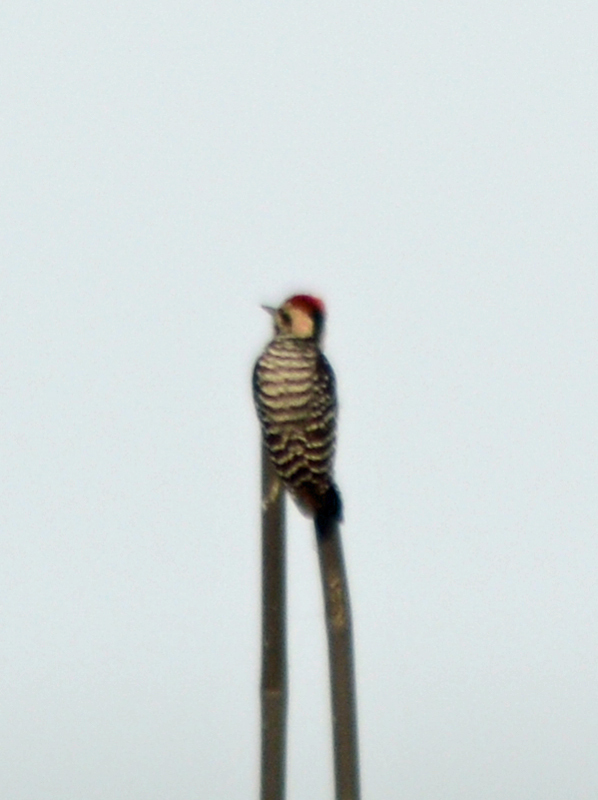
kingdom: Animalia
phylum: Chordata
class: Aves
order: Piciformes
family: Picidae
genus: Dryobates
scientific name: Dryobates scalaris
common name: Ladder-backed woodpecker
